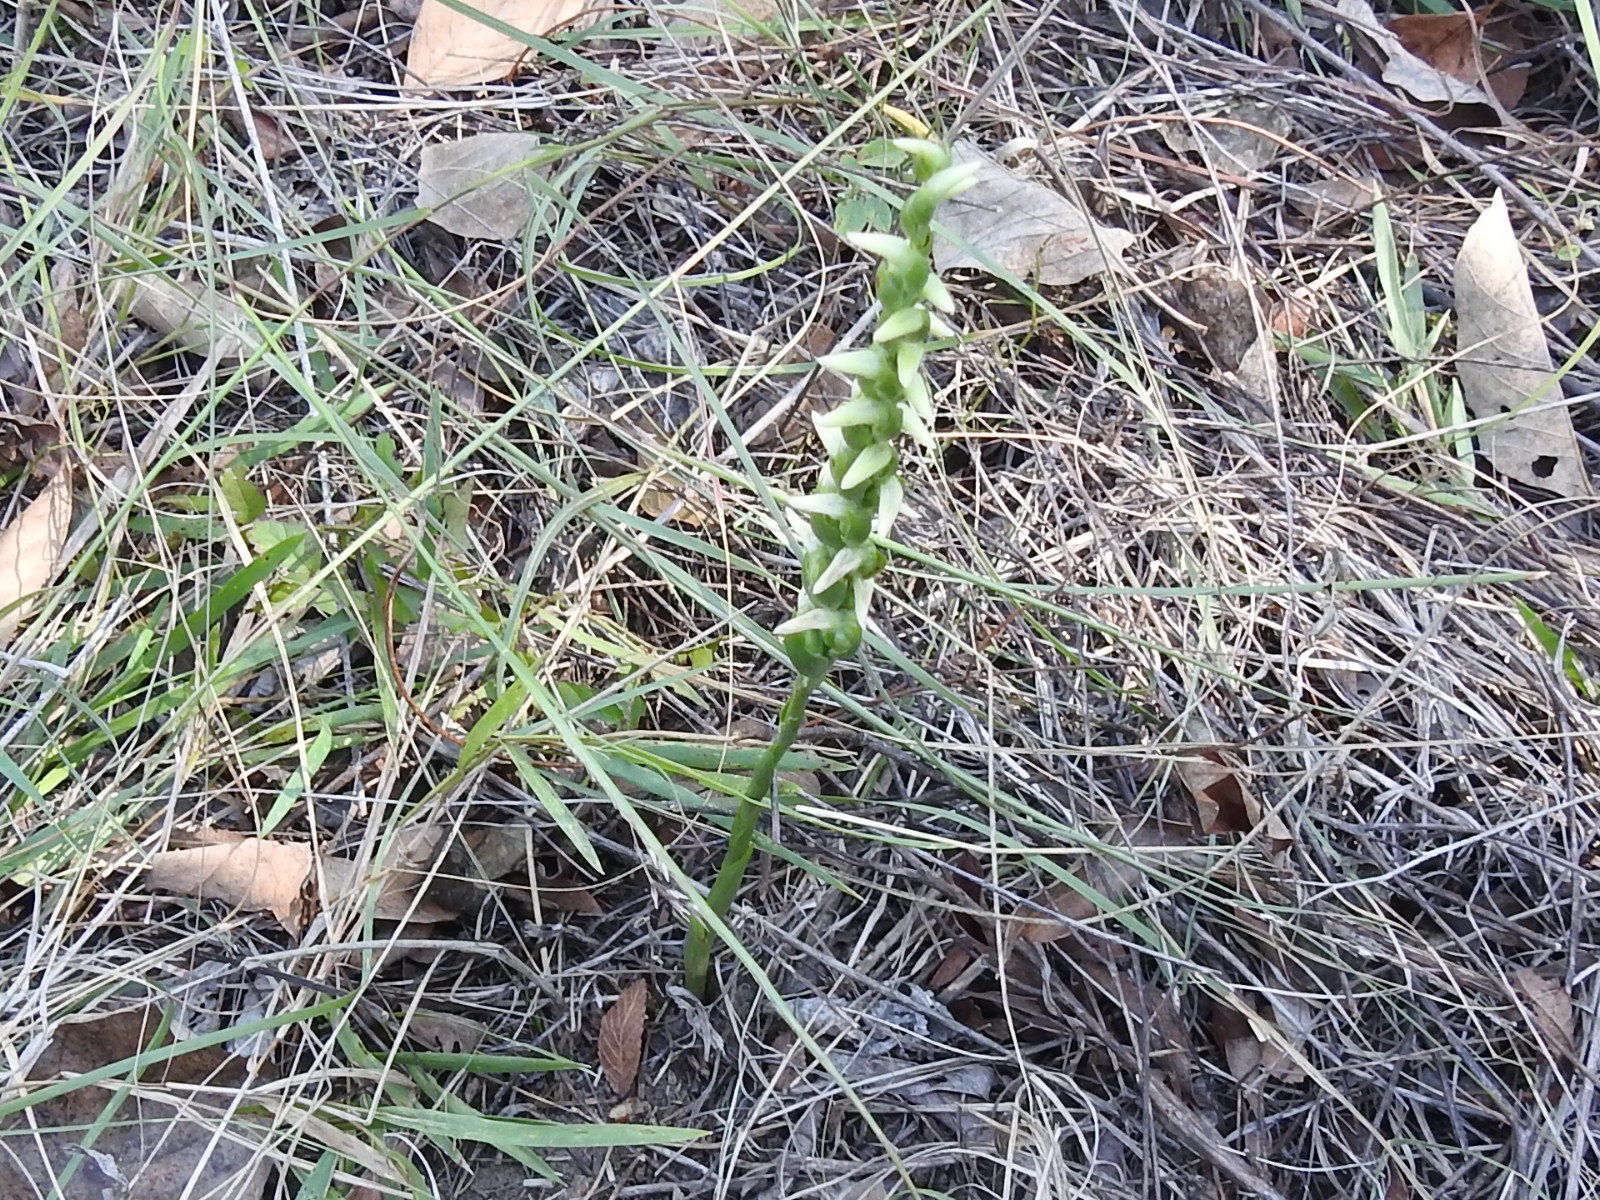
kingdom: Plantae
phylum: Tracheophyta
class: Liliopsida
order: Asparagales
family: Orchidaceae
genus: Spiranthes
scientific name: Spiranthes cernua
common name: Dropping ladies'-tresses
